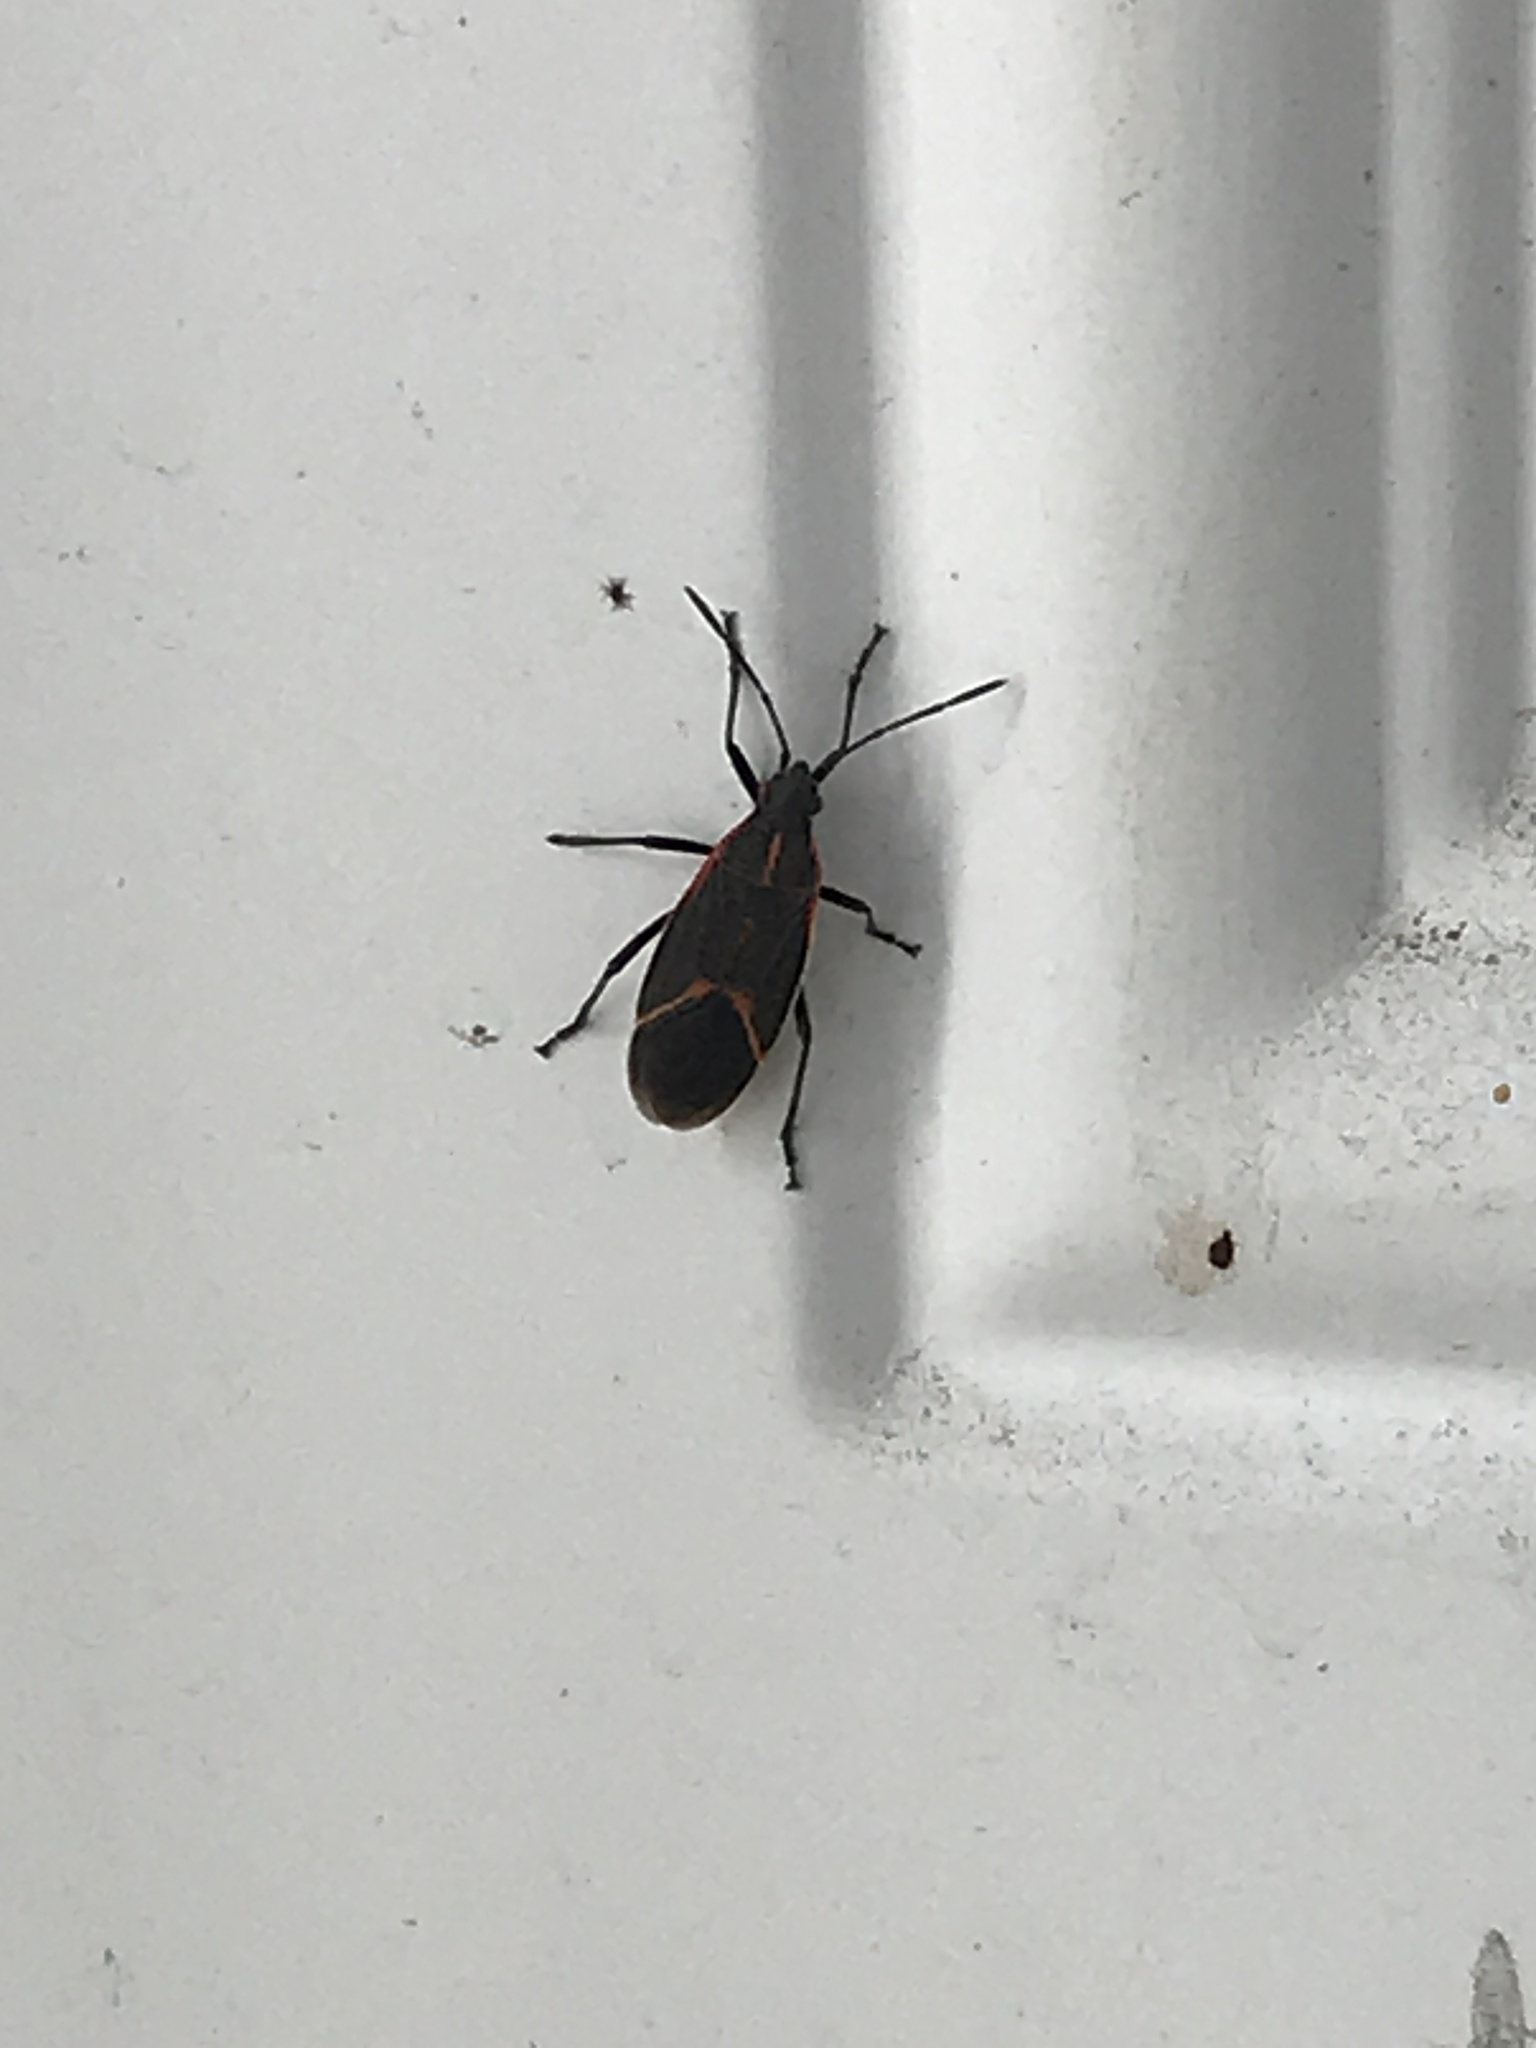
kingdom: Animalia
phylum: Arthropoda
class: Insecta
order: Hemiptera
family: Rhopalidae
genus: Boisea
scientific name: Boisea trivittata
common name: Boxelder bug
